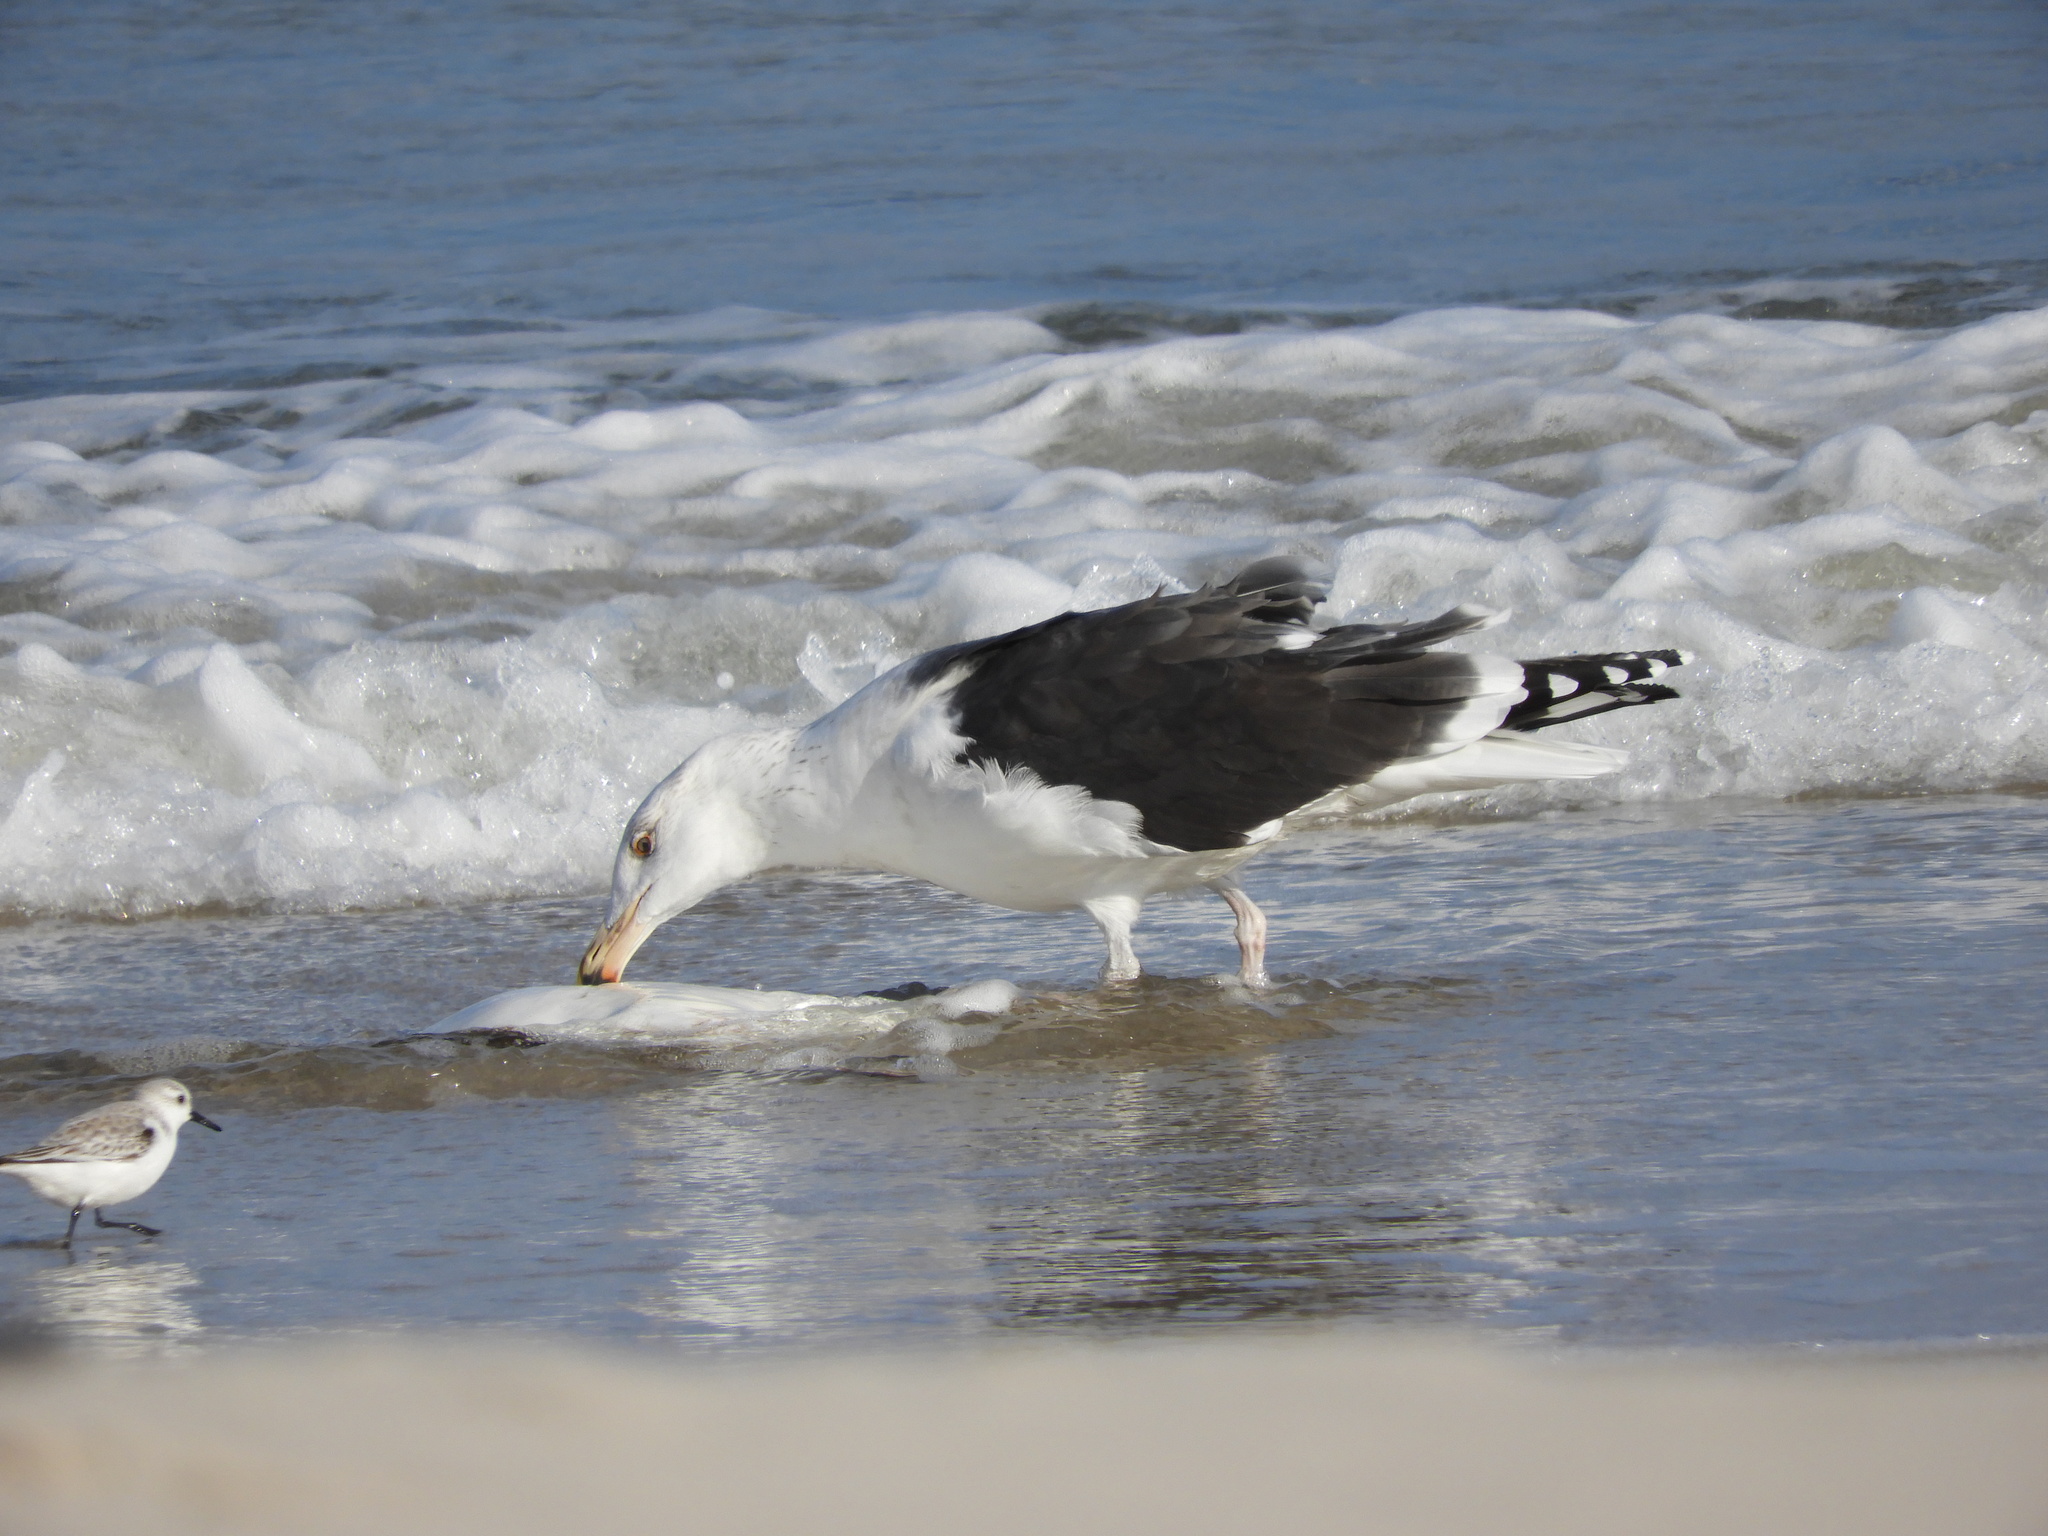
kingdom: Animalia
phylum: Chordata
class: Aves
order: Charadriiformes
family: Laridae
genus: Larus
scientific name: Larus marinus
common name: Great black-backed gull
